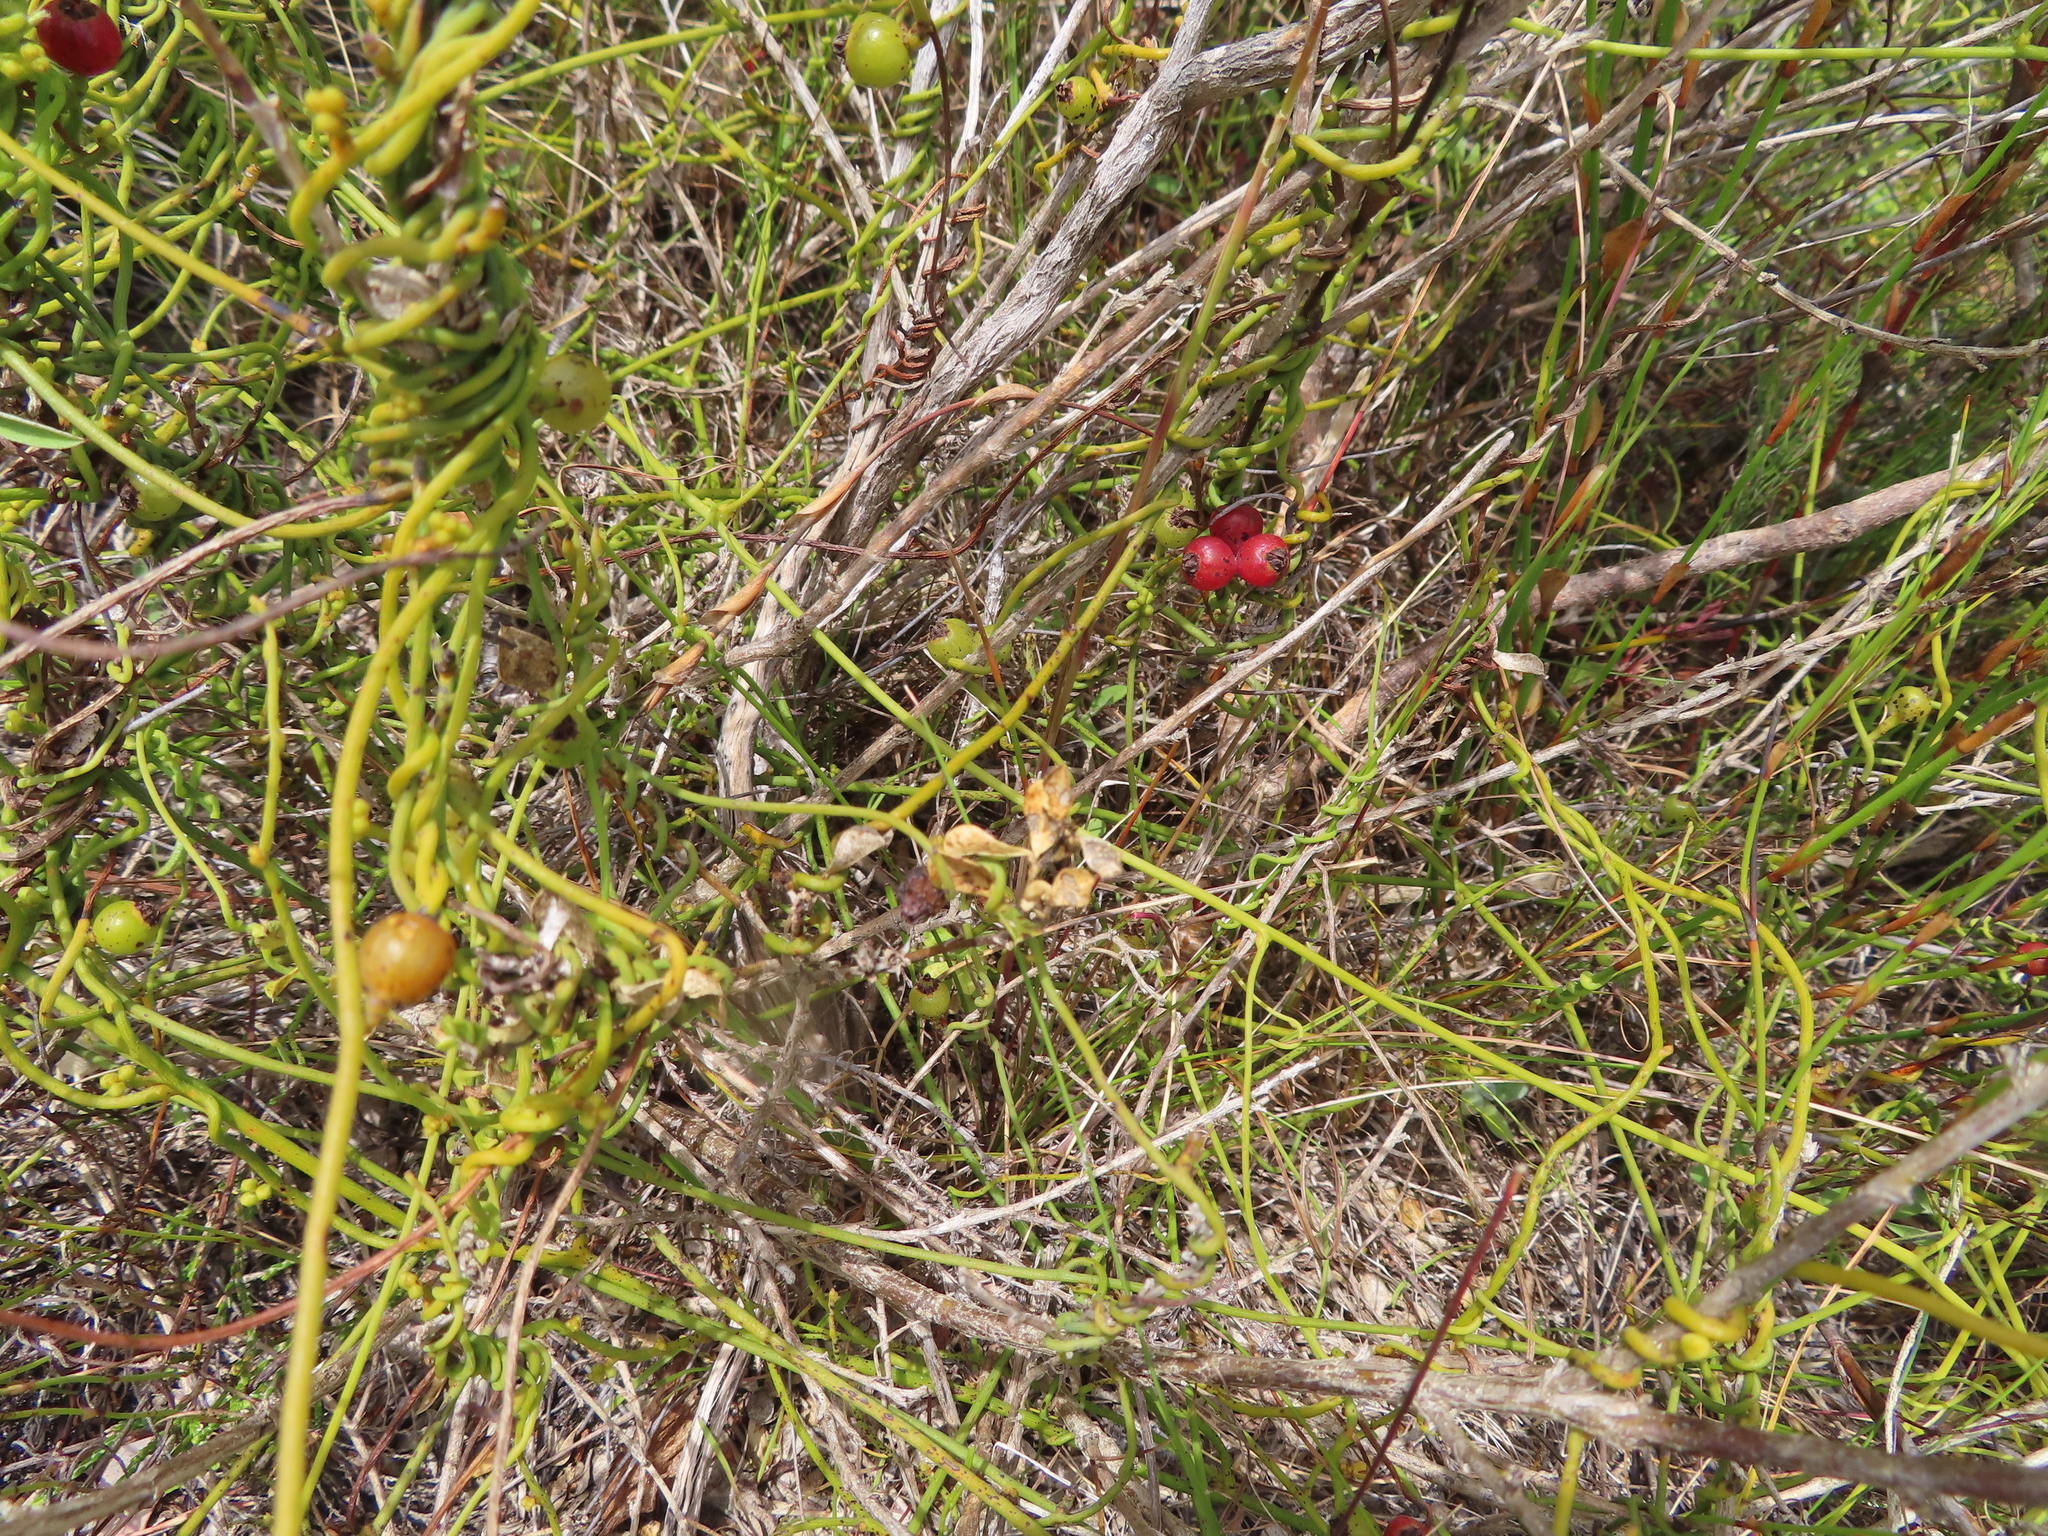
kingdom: Plantae
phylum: Tracheophyta
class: Magnoliopsida
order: Laurales
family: Lauraceae
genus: Cassytha
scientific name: Cassytha ciliolata
